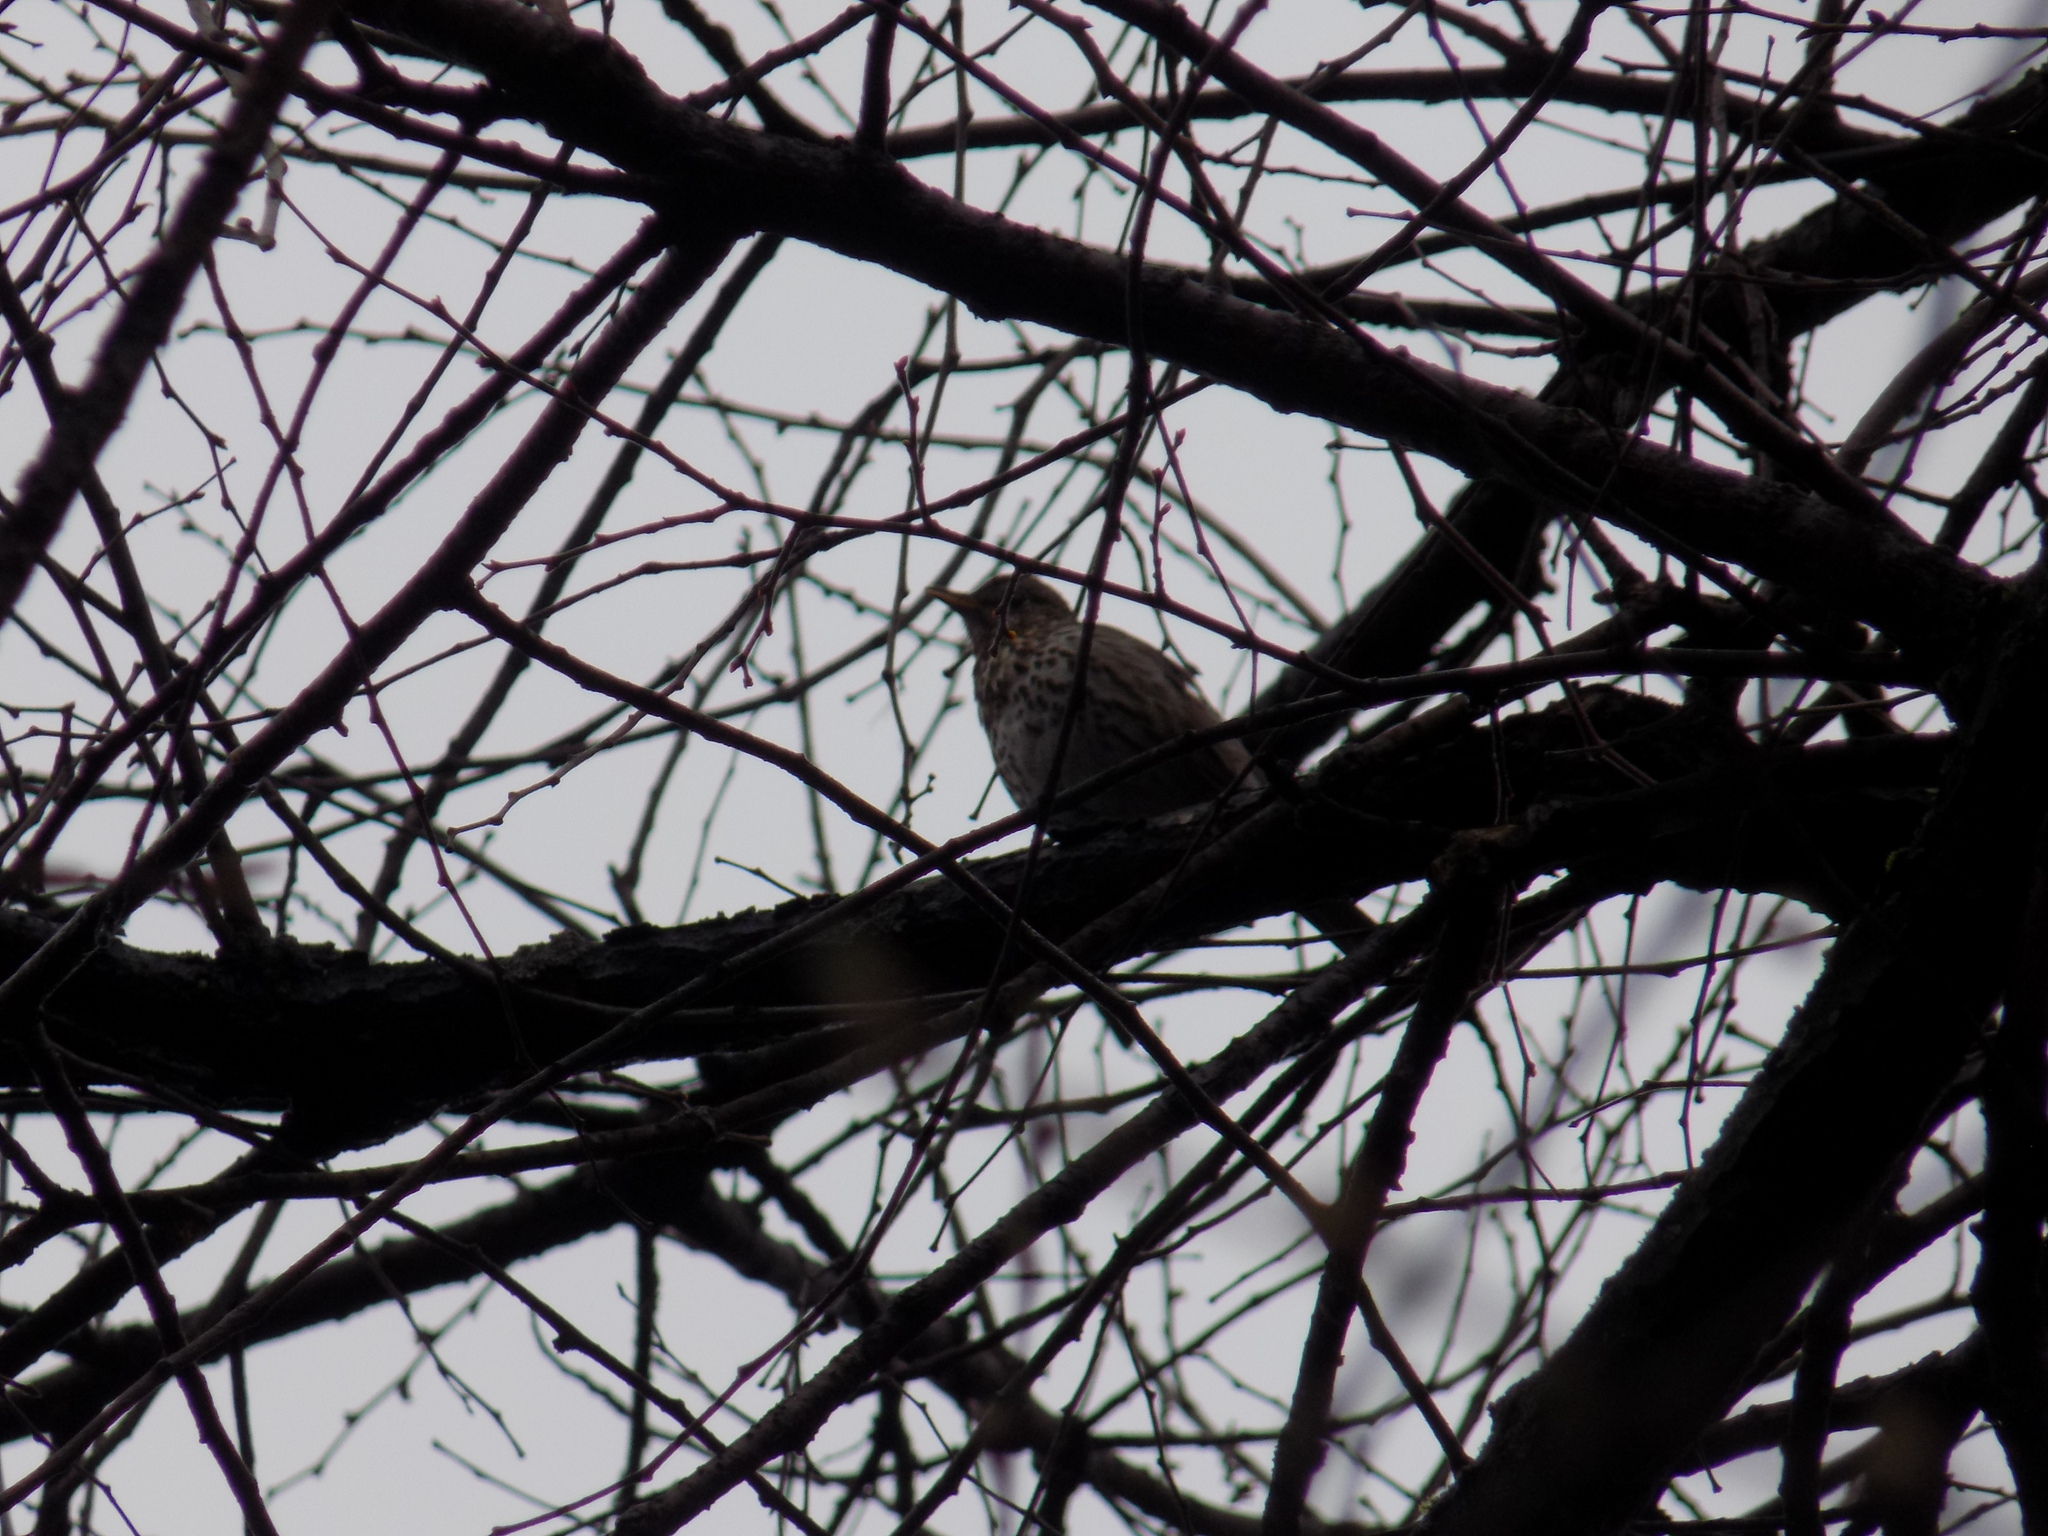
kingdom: Animalia
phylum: Chordata
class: Aves
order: Passeriformes
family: Turdidae
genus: Turdus
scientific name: Turdus philomelos
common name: Song thrush
